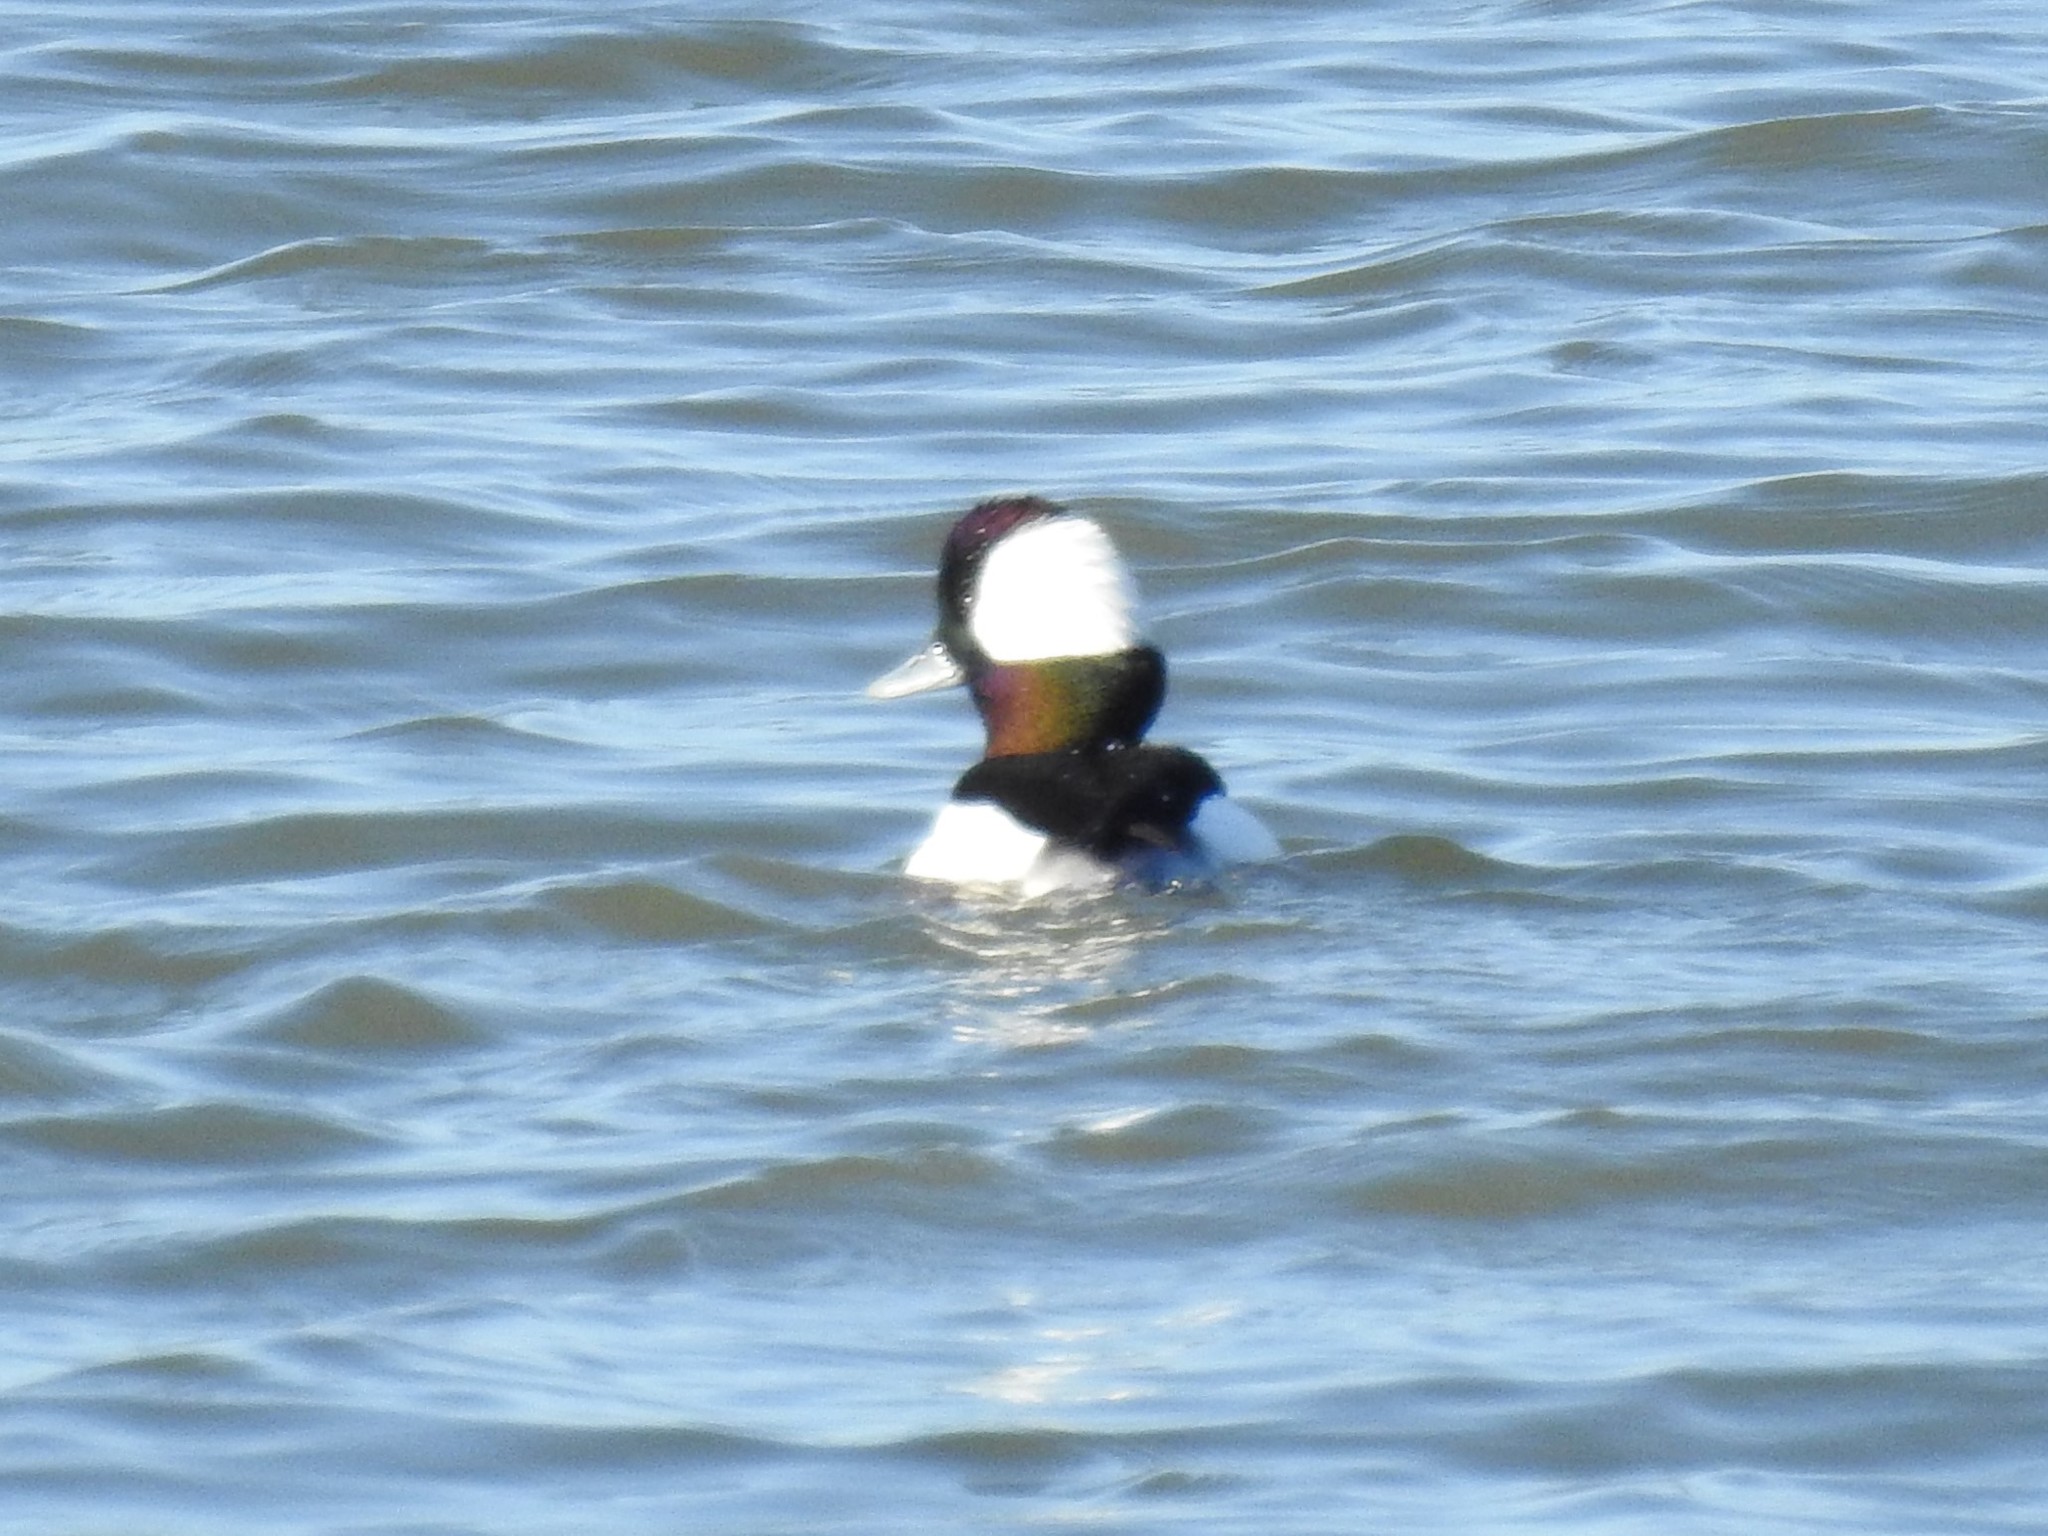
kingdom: Animalia
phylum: Chordata
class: Aves
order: Anseriformes
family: Anatidae
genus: Bucephala
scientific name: Bucephala albeola
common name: Bufflehead
